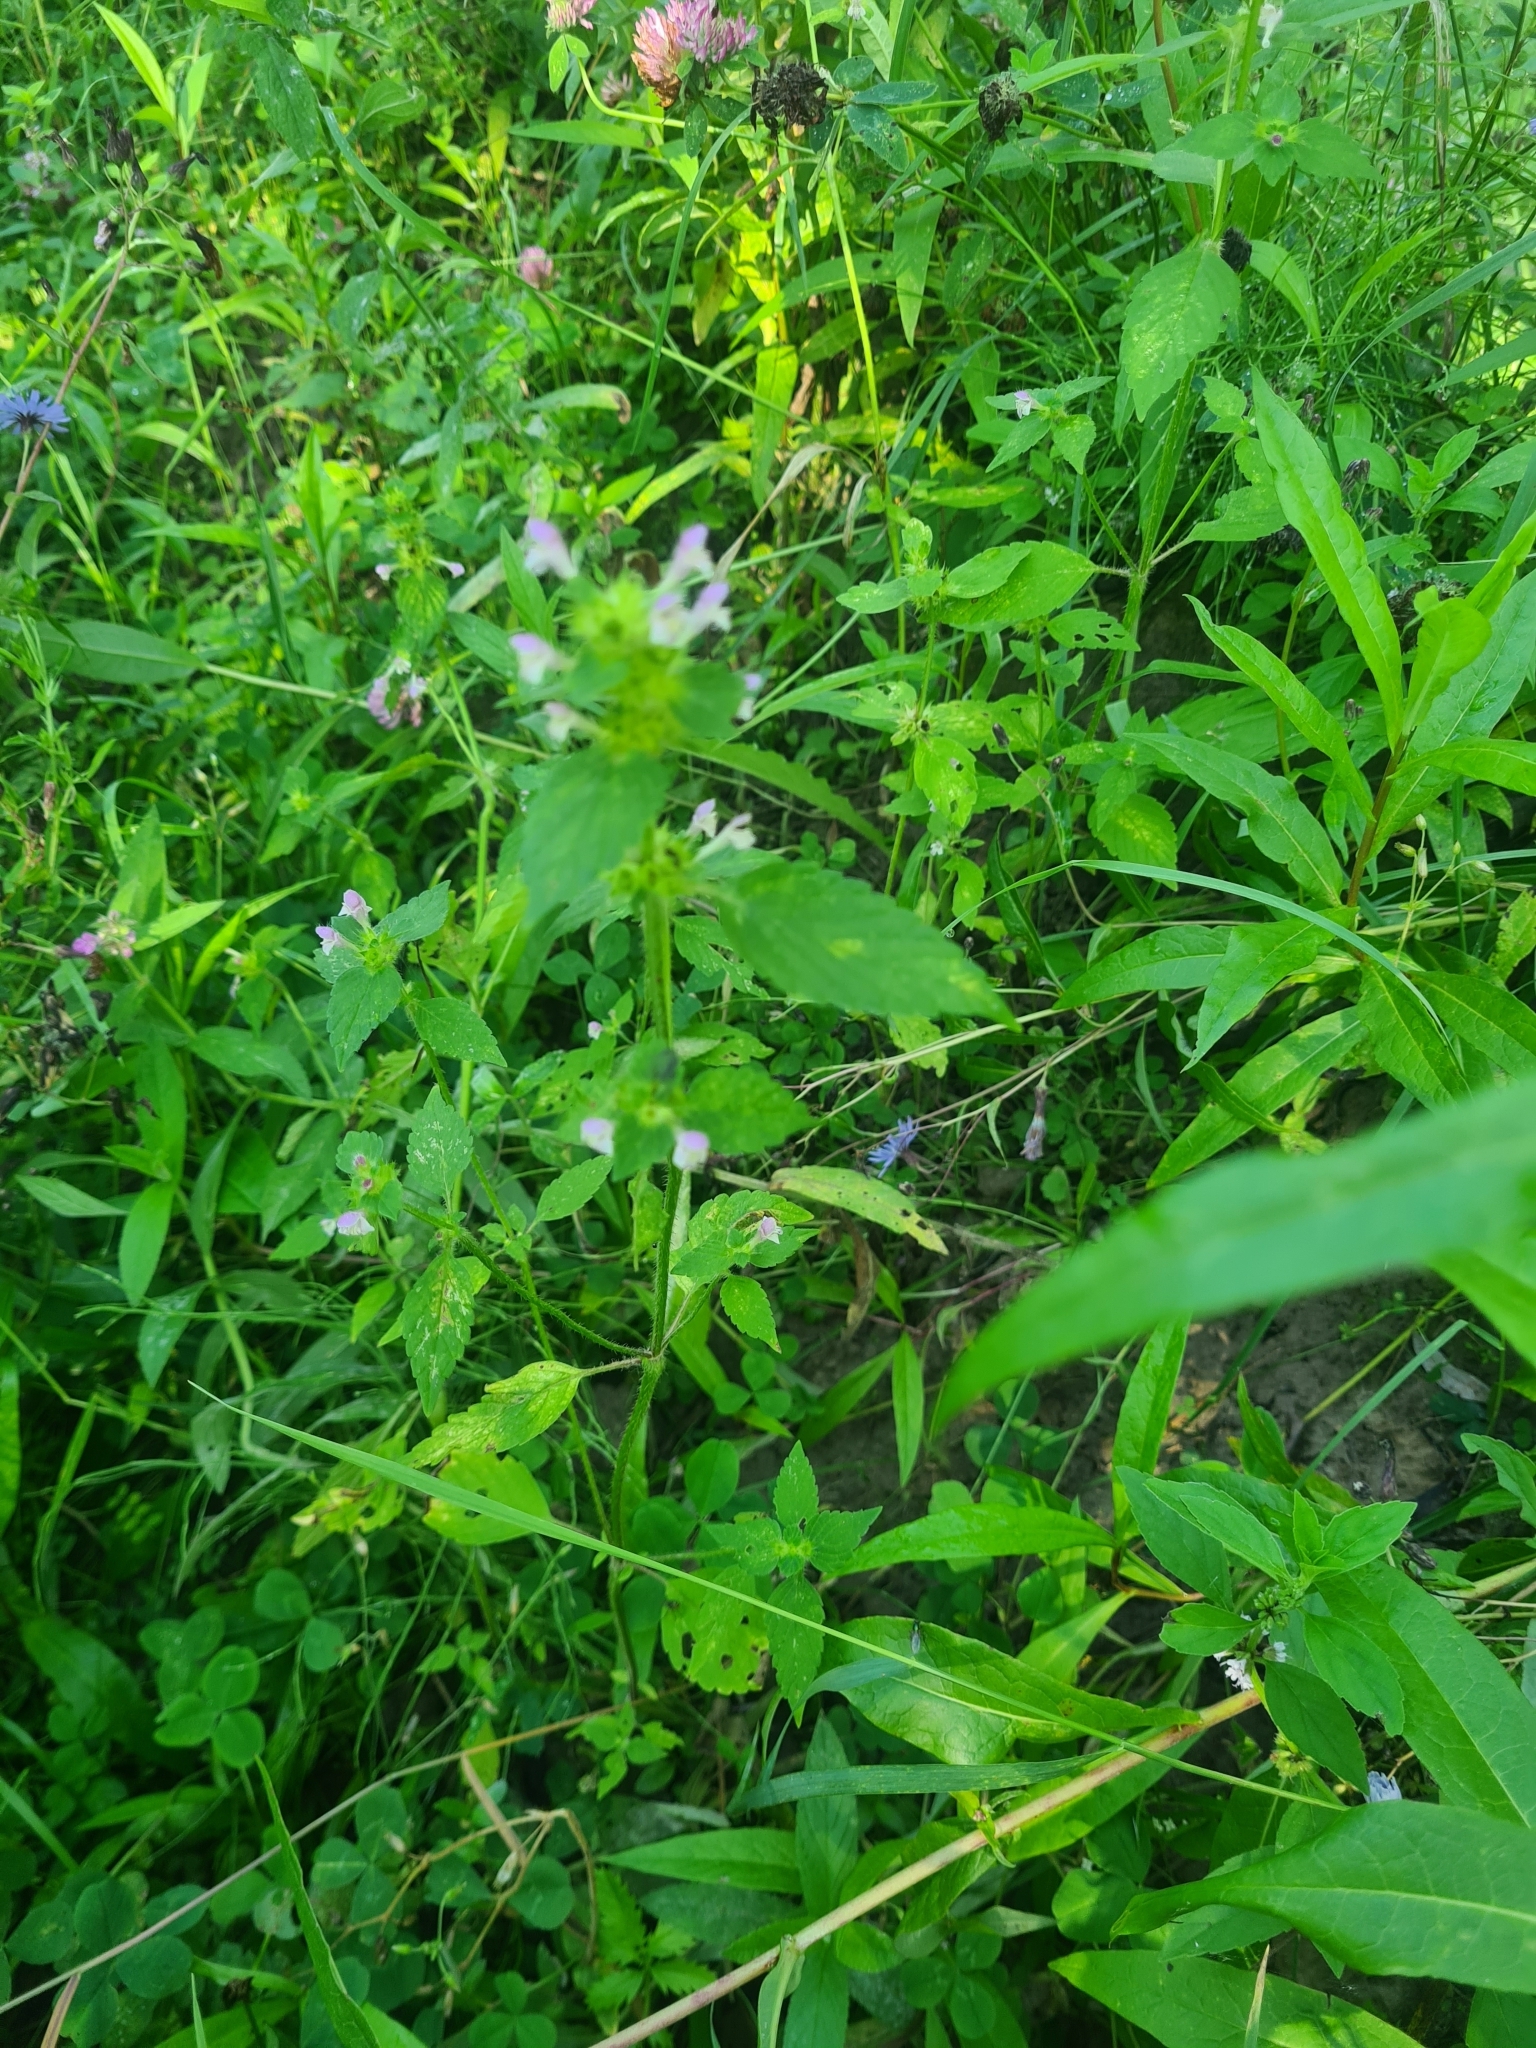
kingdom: Plantae
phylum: Tracheophyta
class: Magnoliopsida
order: Lamiales
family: Lamiaceae
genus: Galeopsis
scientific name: Galeopsis bifida
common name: Bifid hemp-nettle
